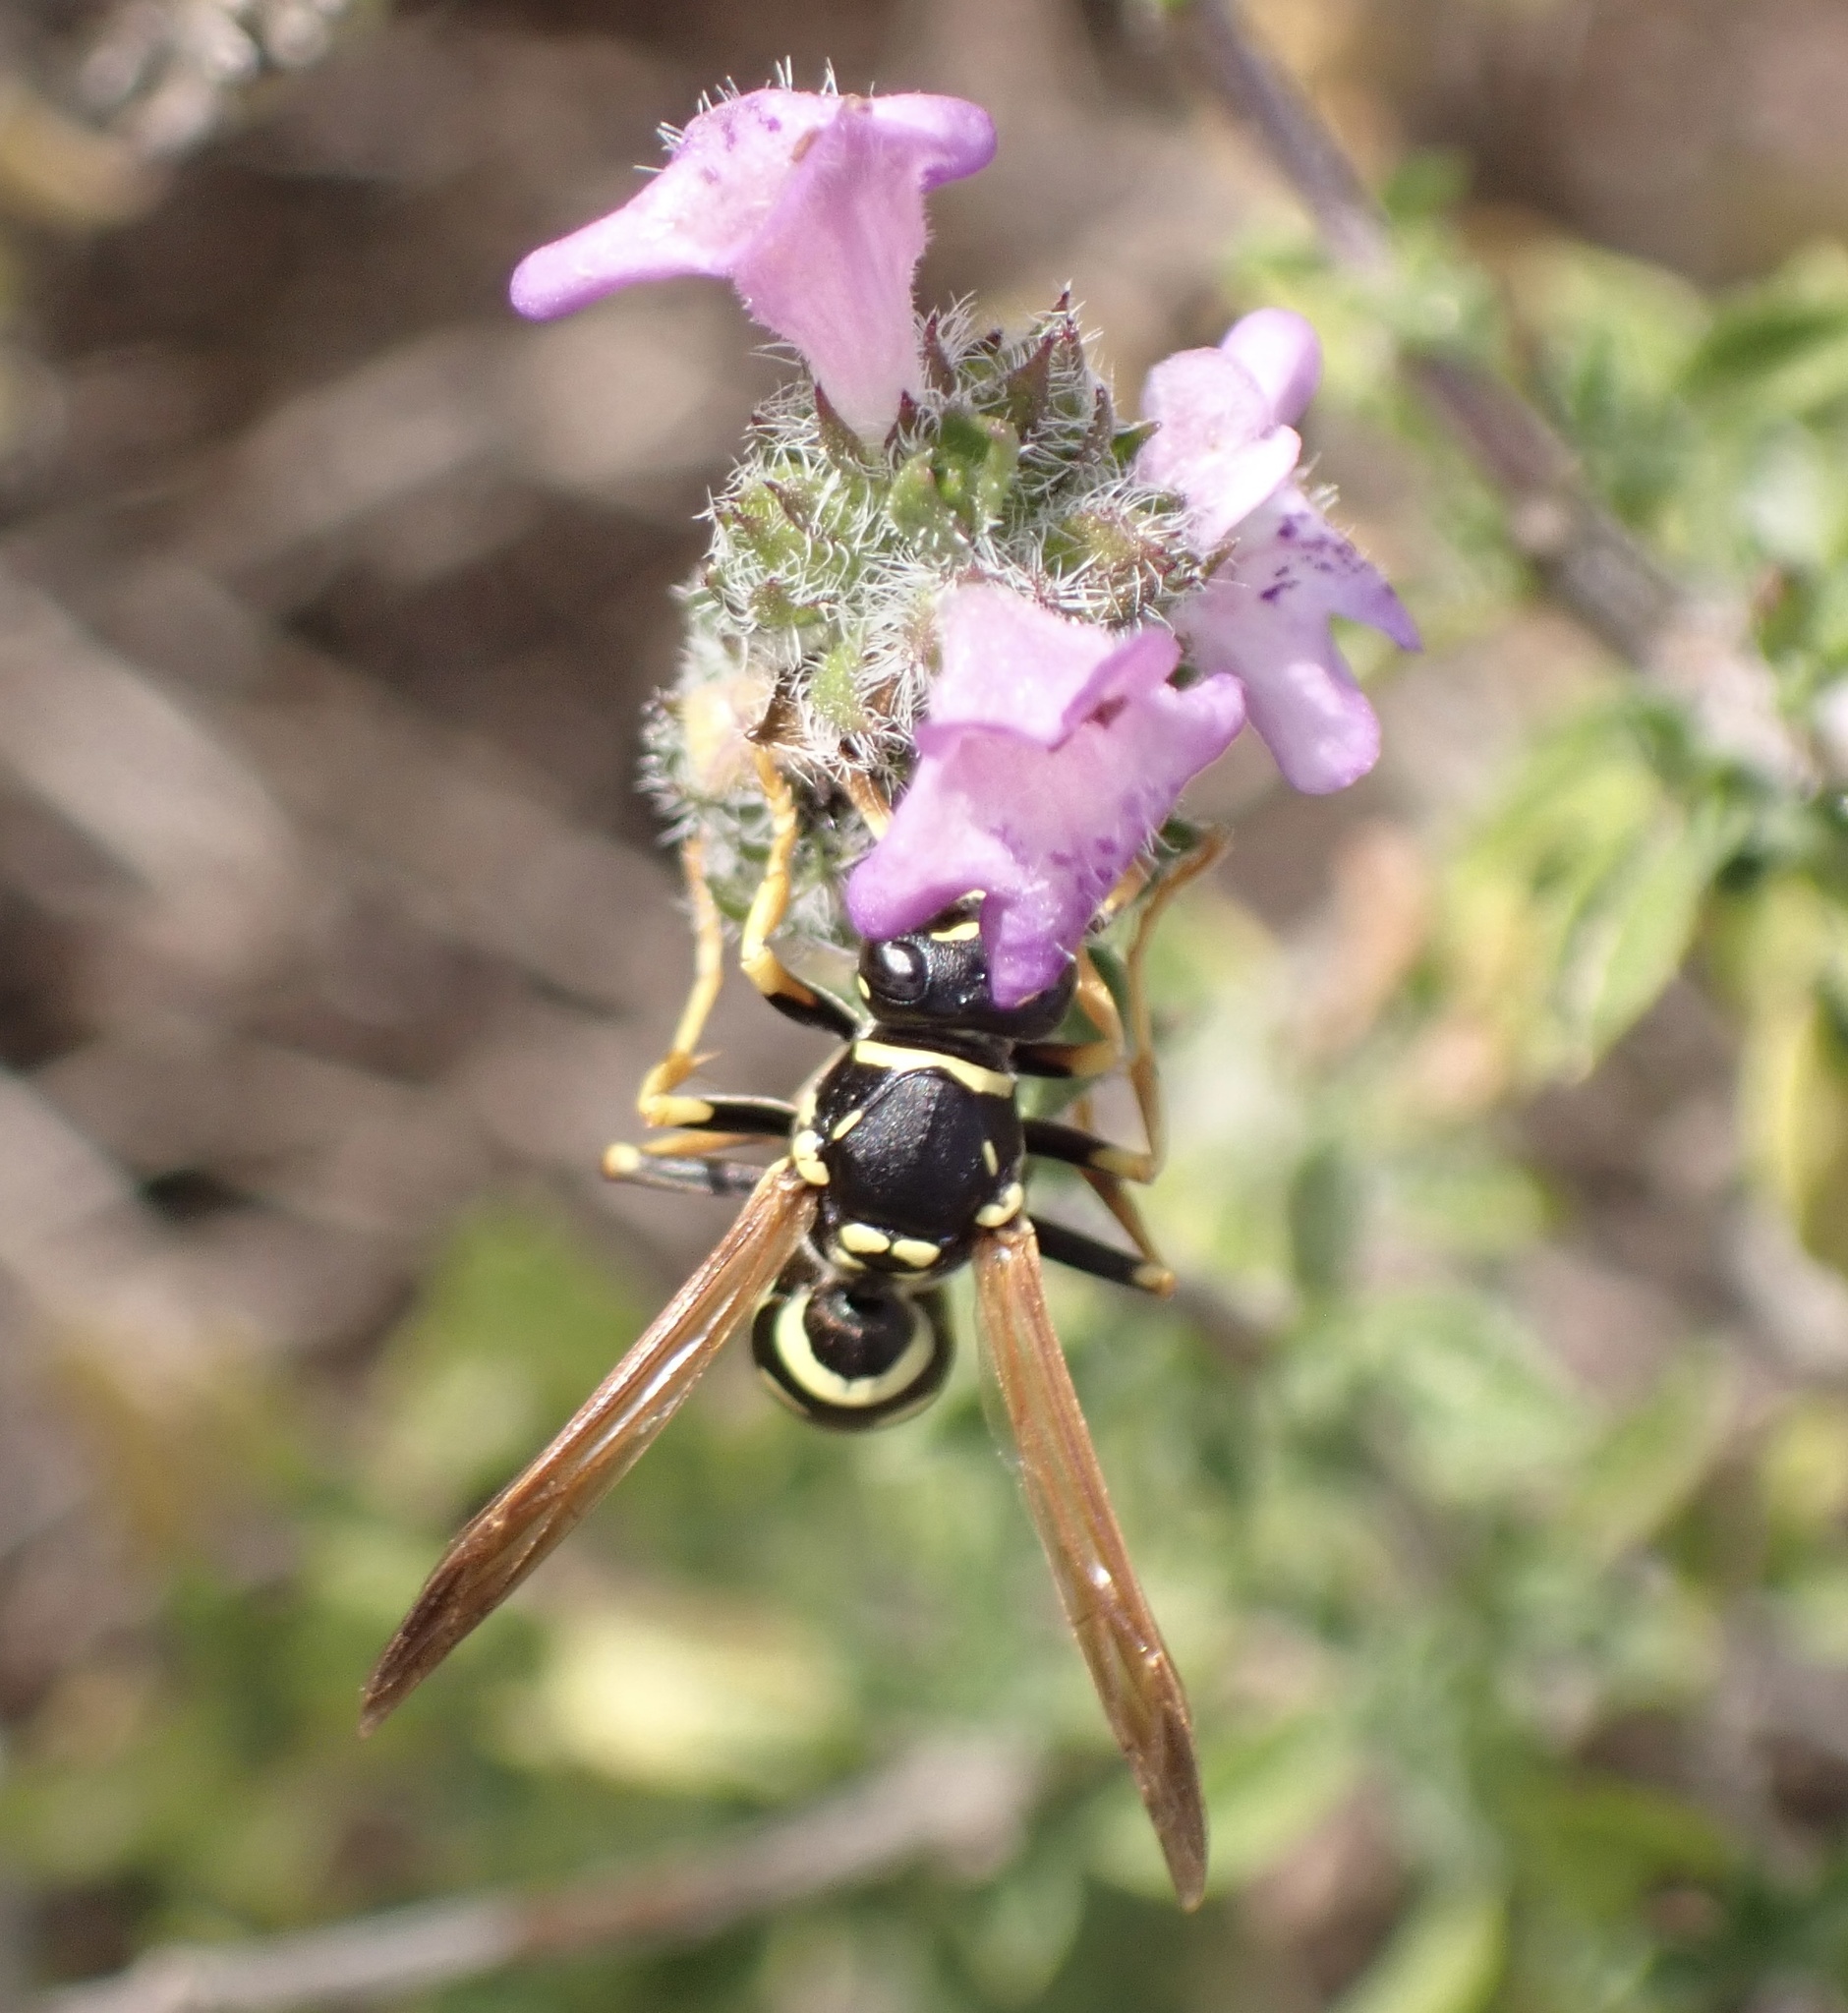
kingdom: Animalia
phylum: Arthropoda
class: Insecta
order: Hymenoptera
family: Eumenidae
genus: Polistes
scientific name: Polistes gallicus
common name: Paper wasp
